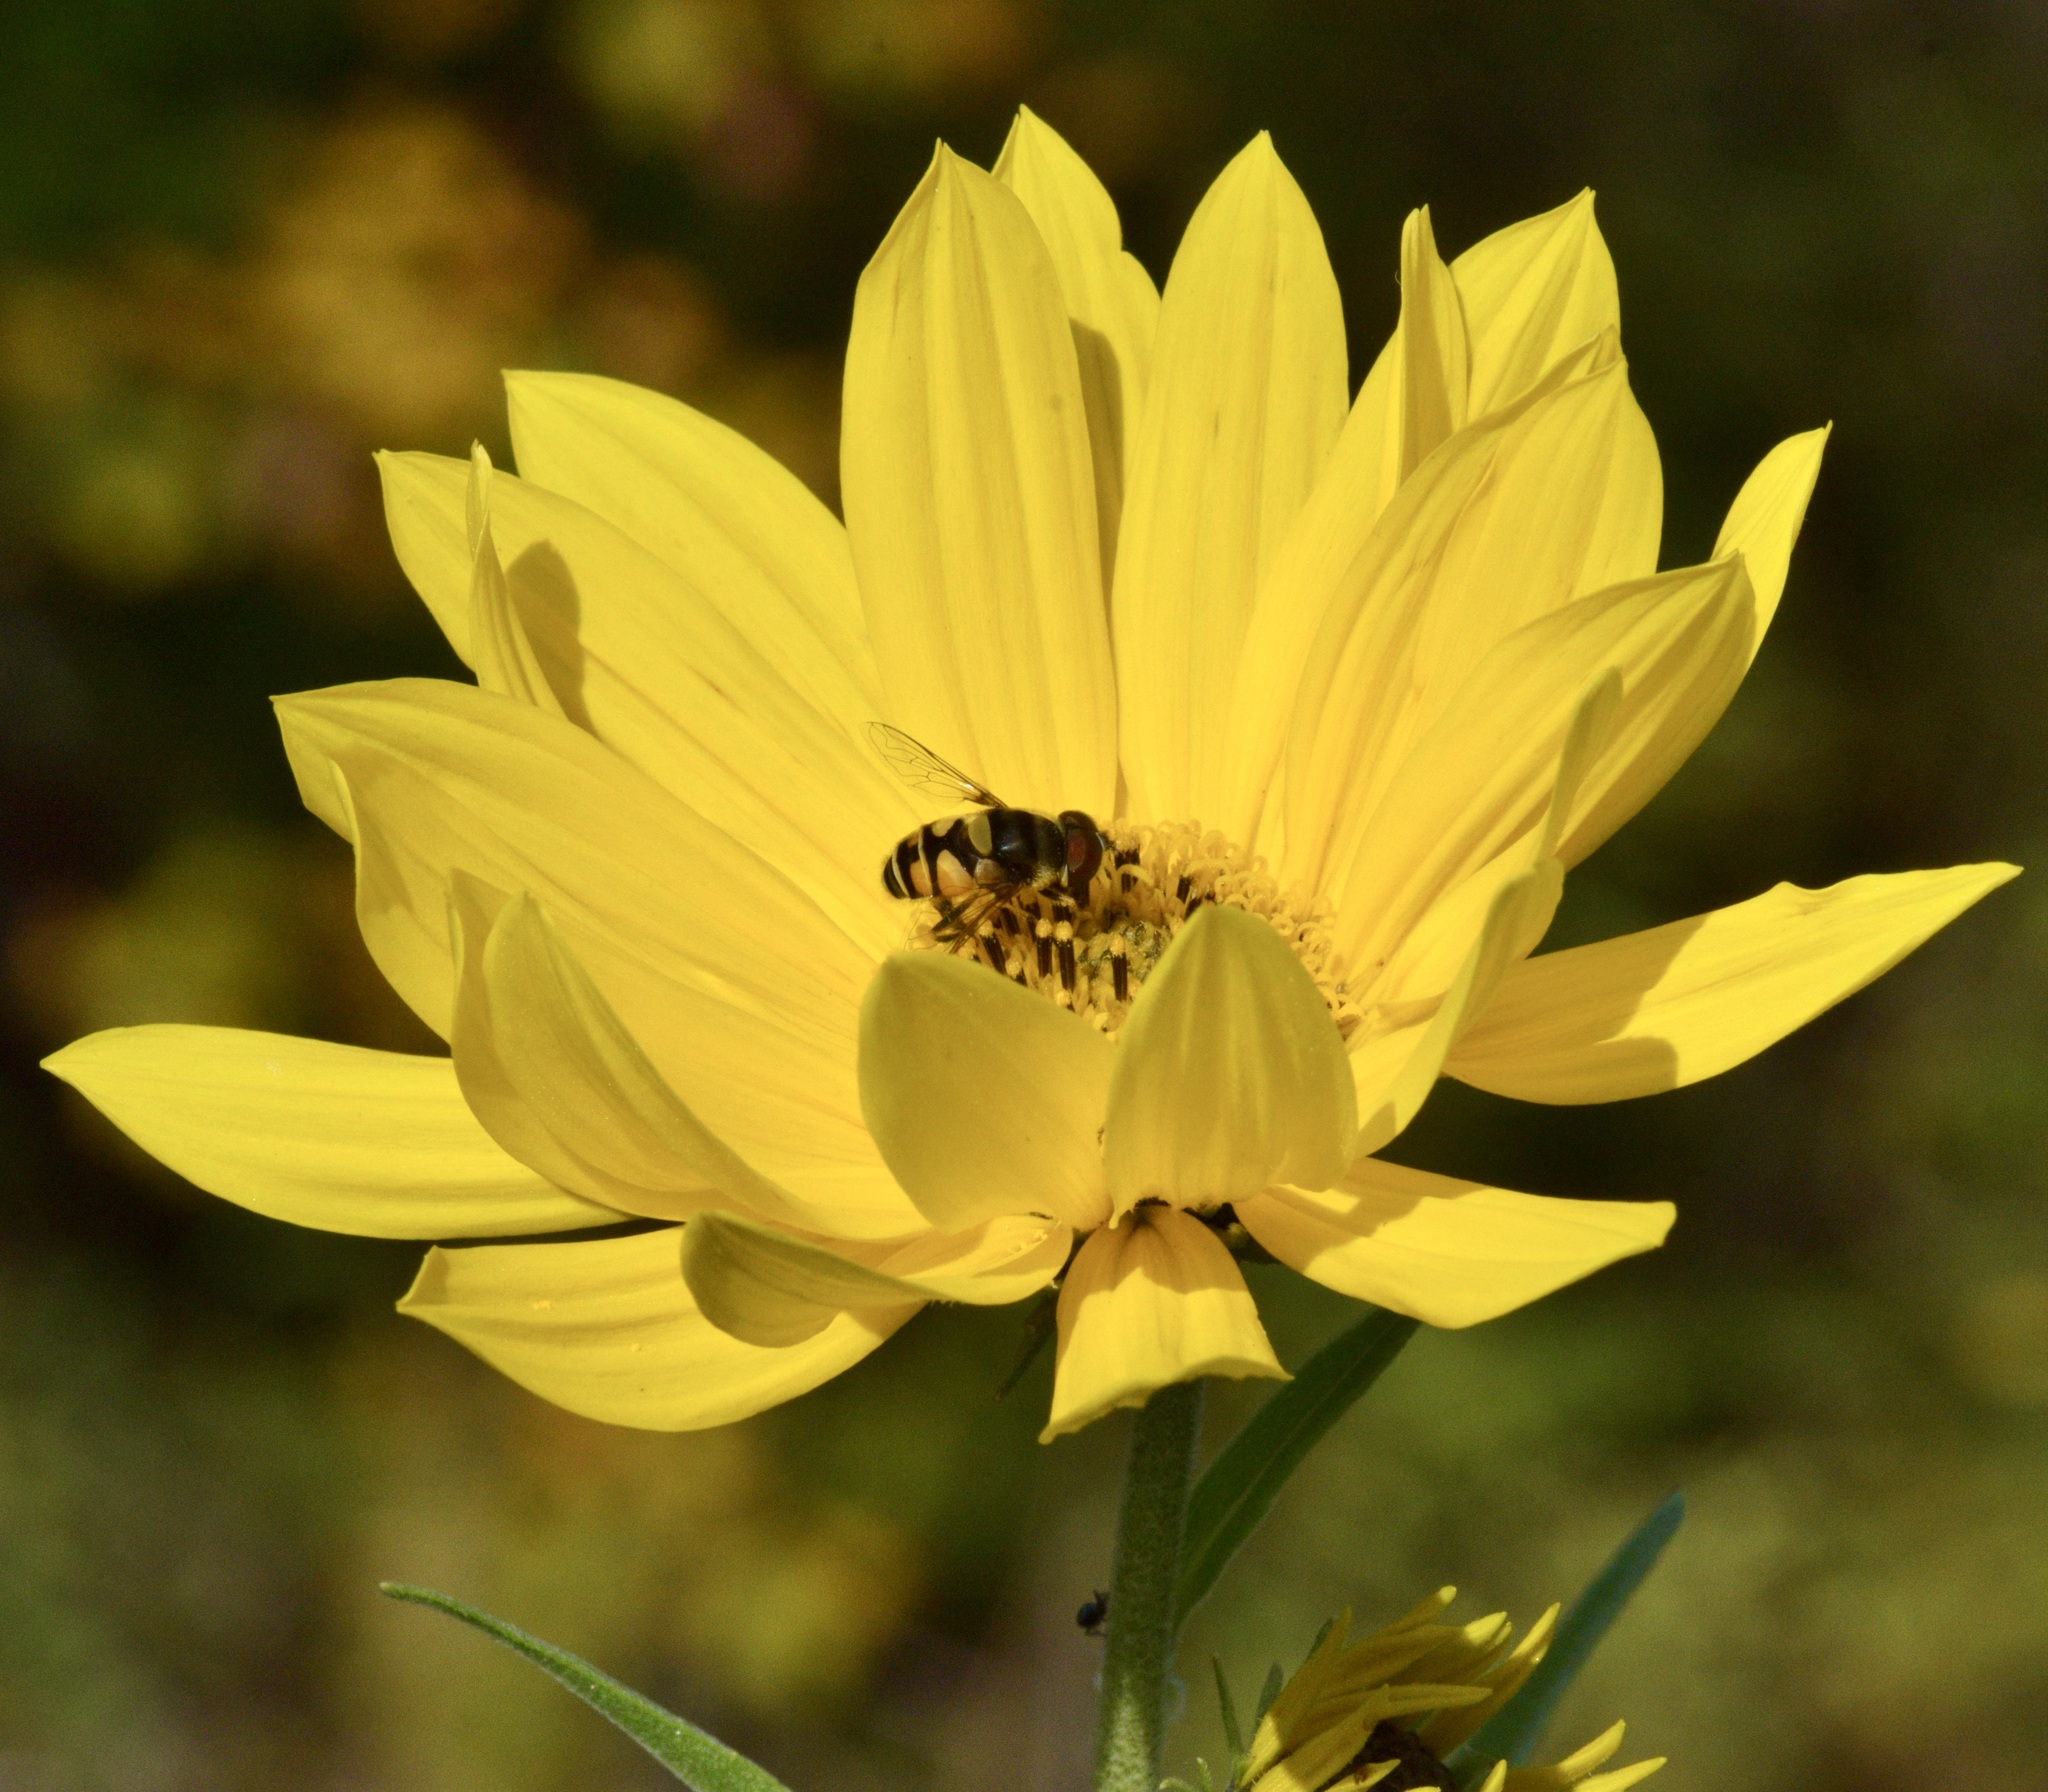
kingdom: Animalia
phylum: Arthropoda
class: Insecta
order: Diptera
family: Syrphidae
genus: Eristalis
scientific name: Eristalis transversa
